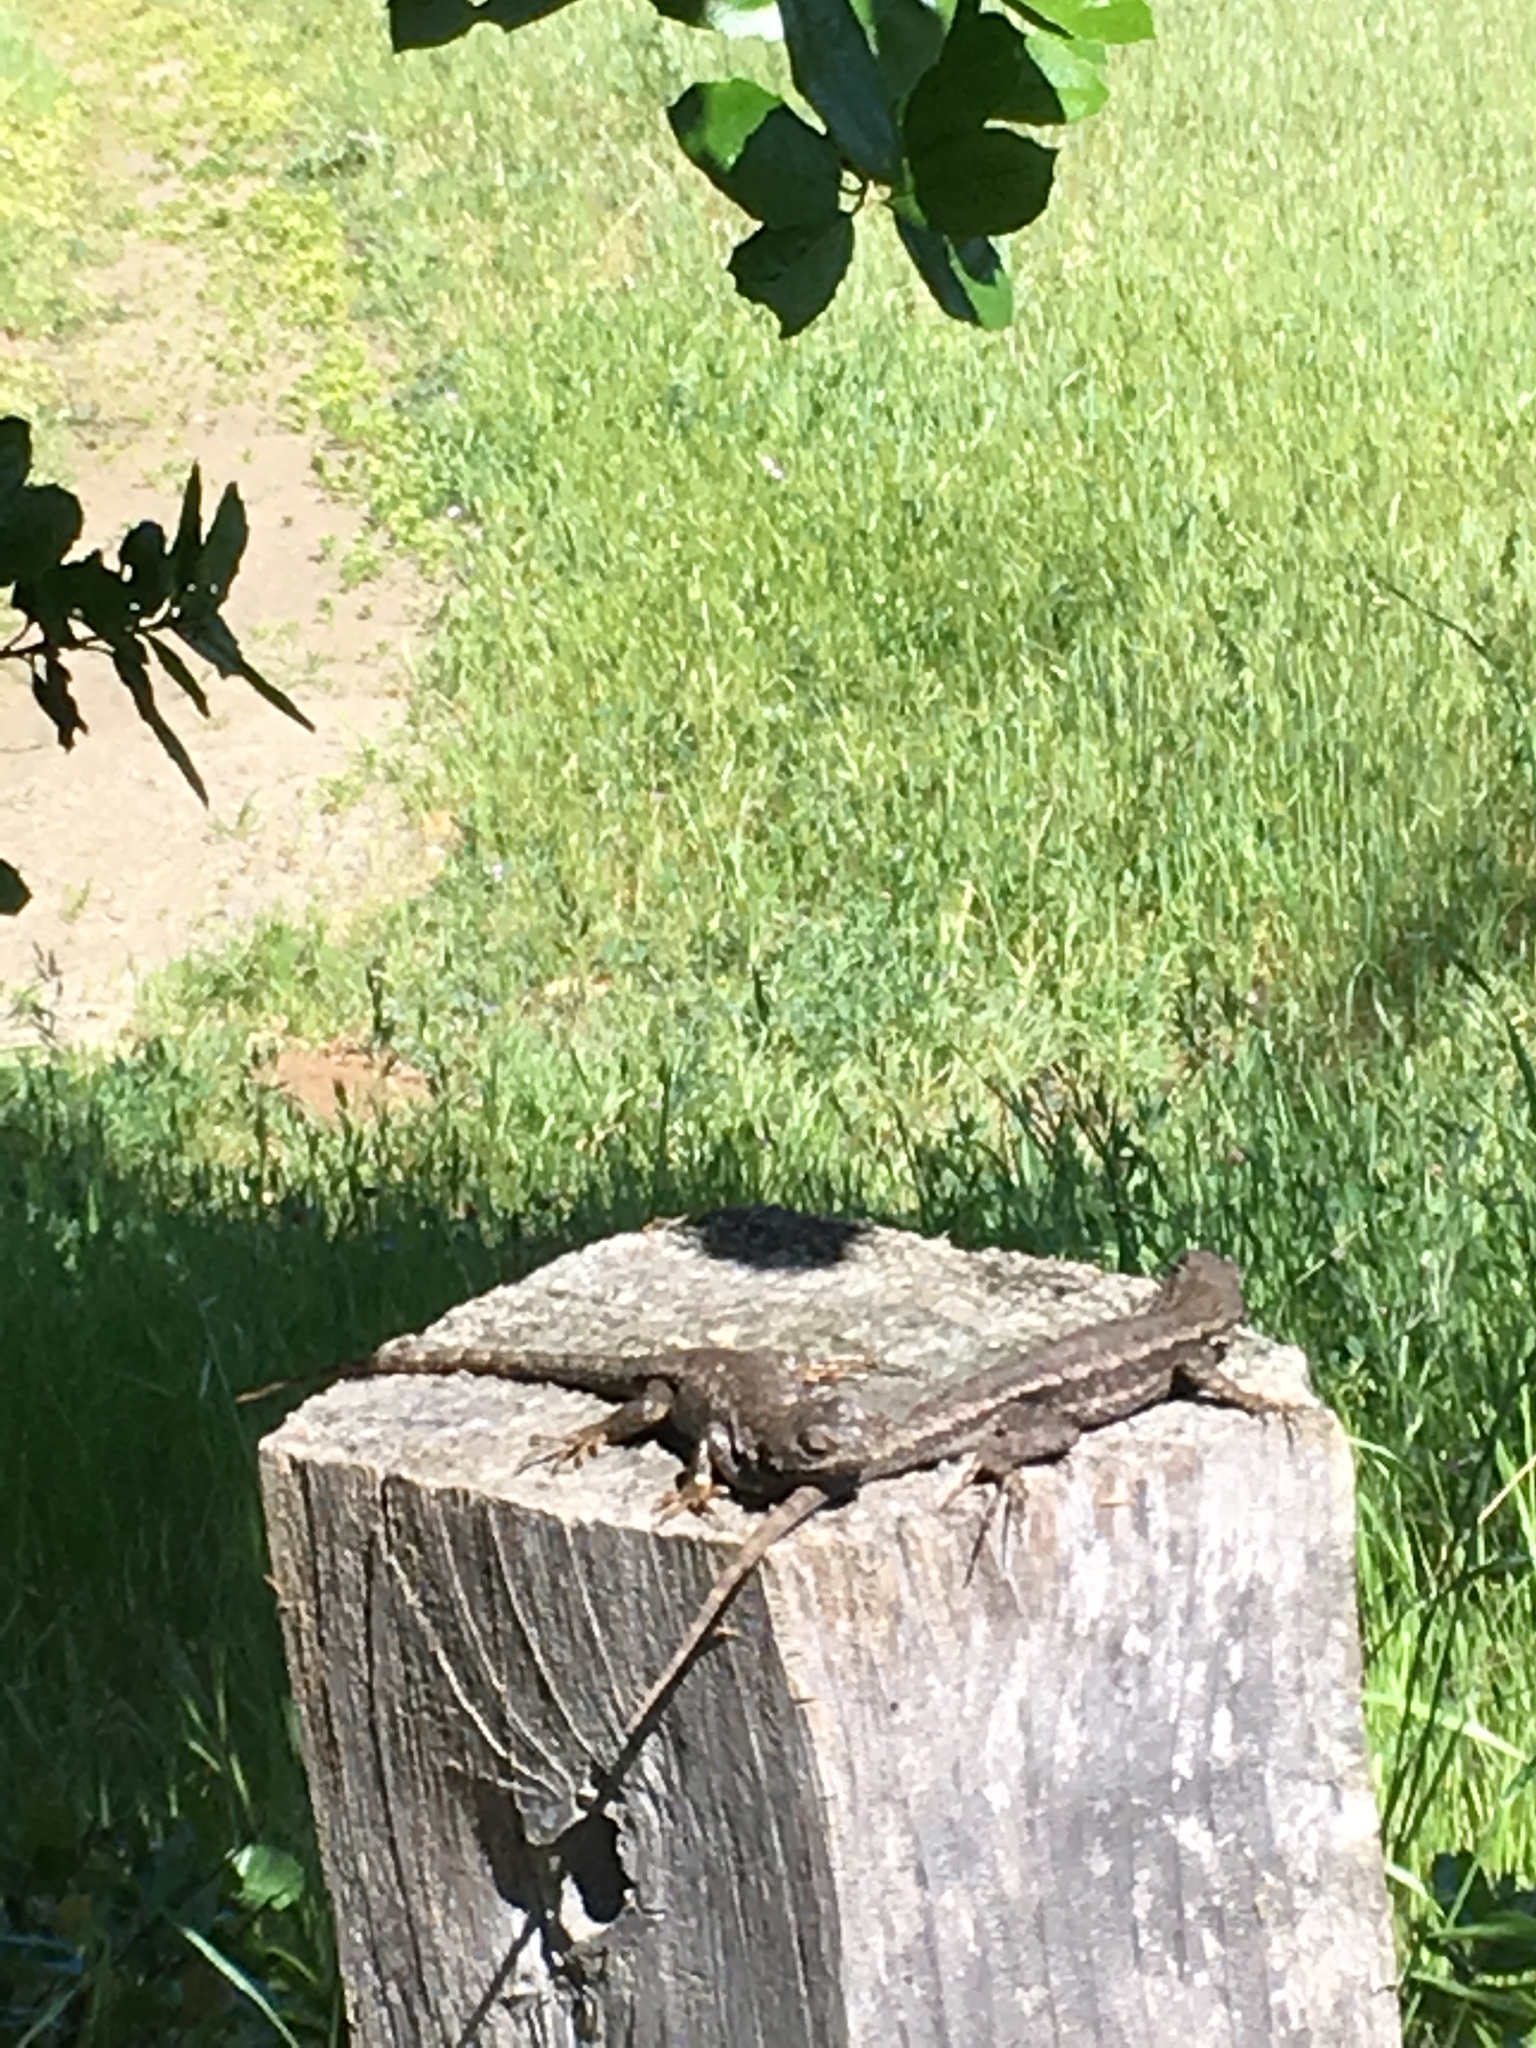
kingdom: Animalia
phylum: Chordata
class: Squamata
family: Phrynosomatidae
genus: Sceloporus
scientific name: Sceloporus occidentalis
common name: Western fence lizard
